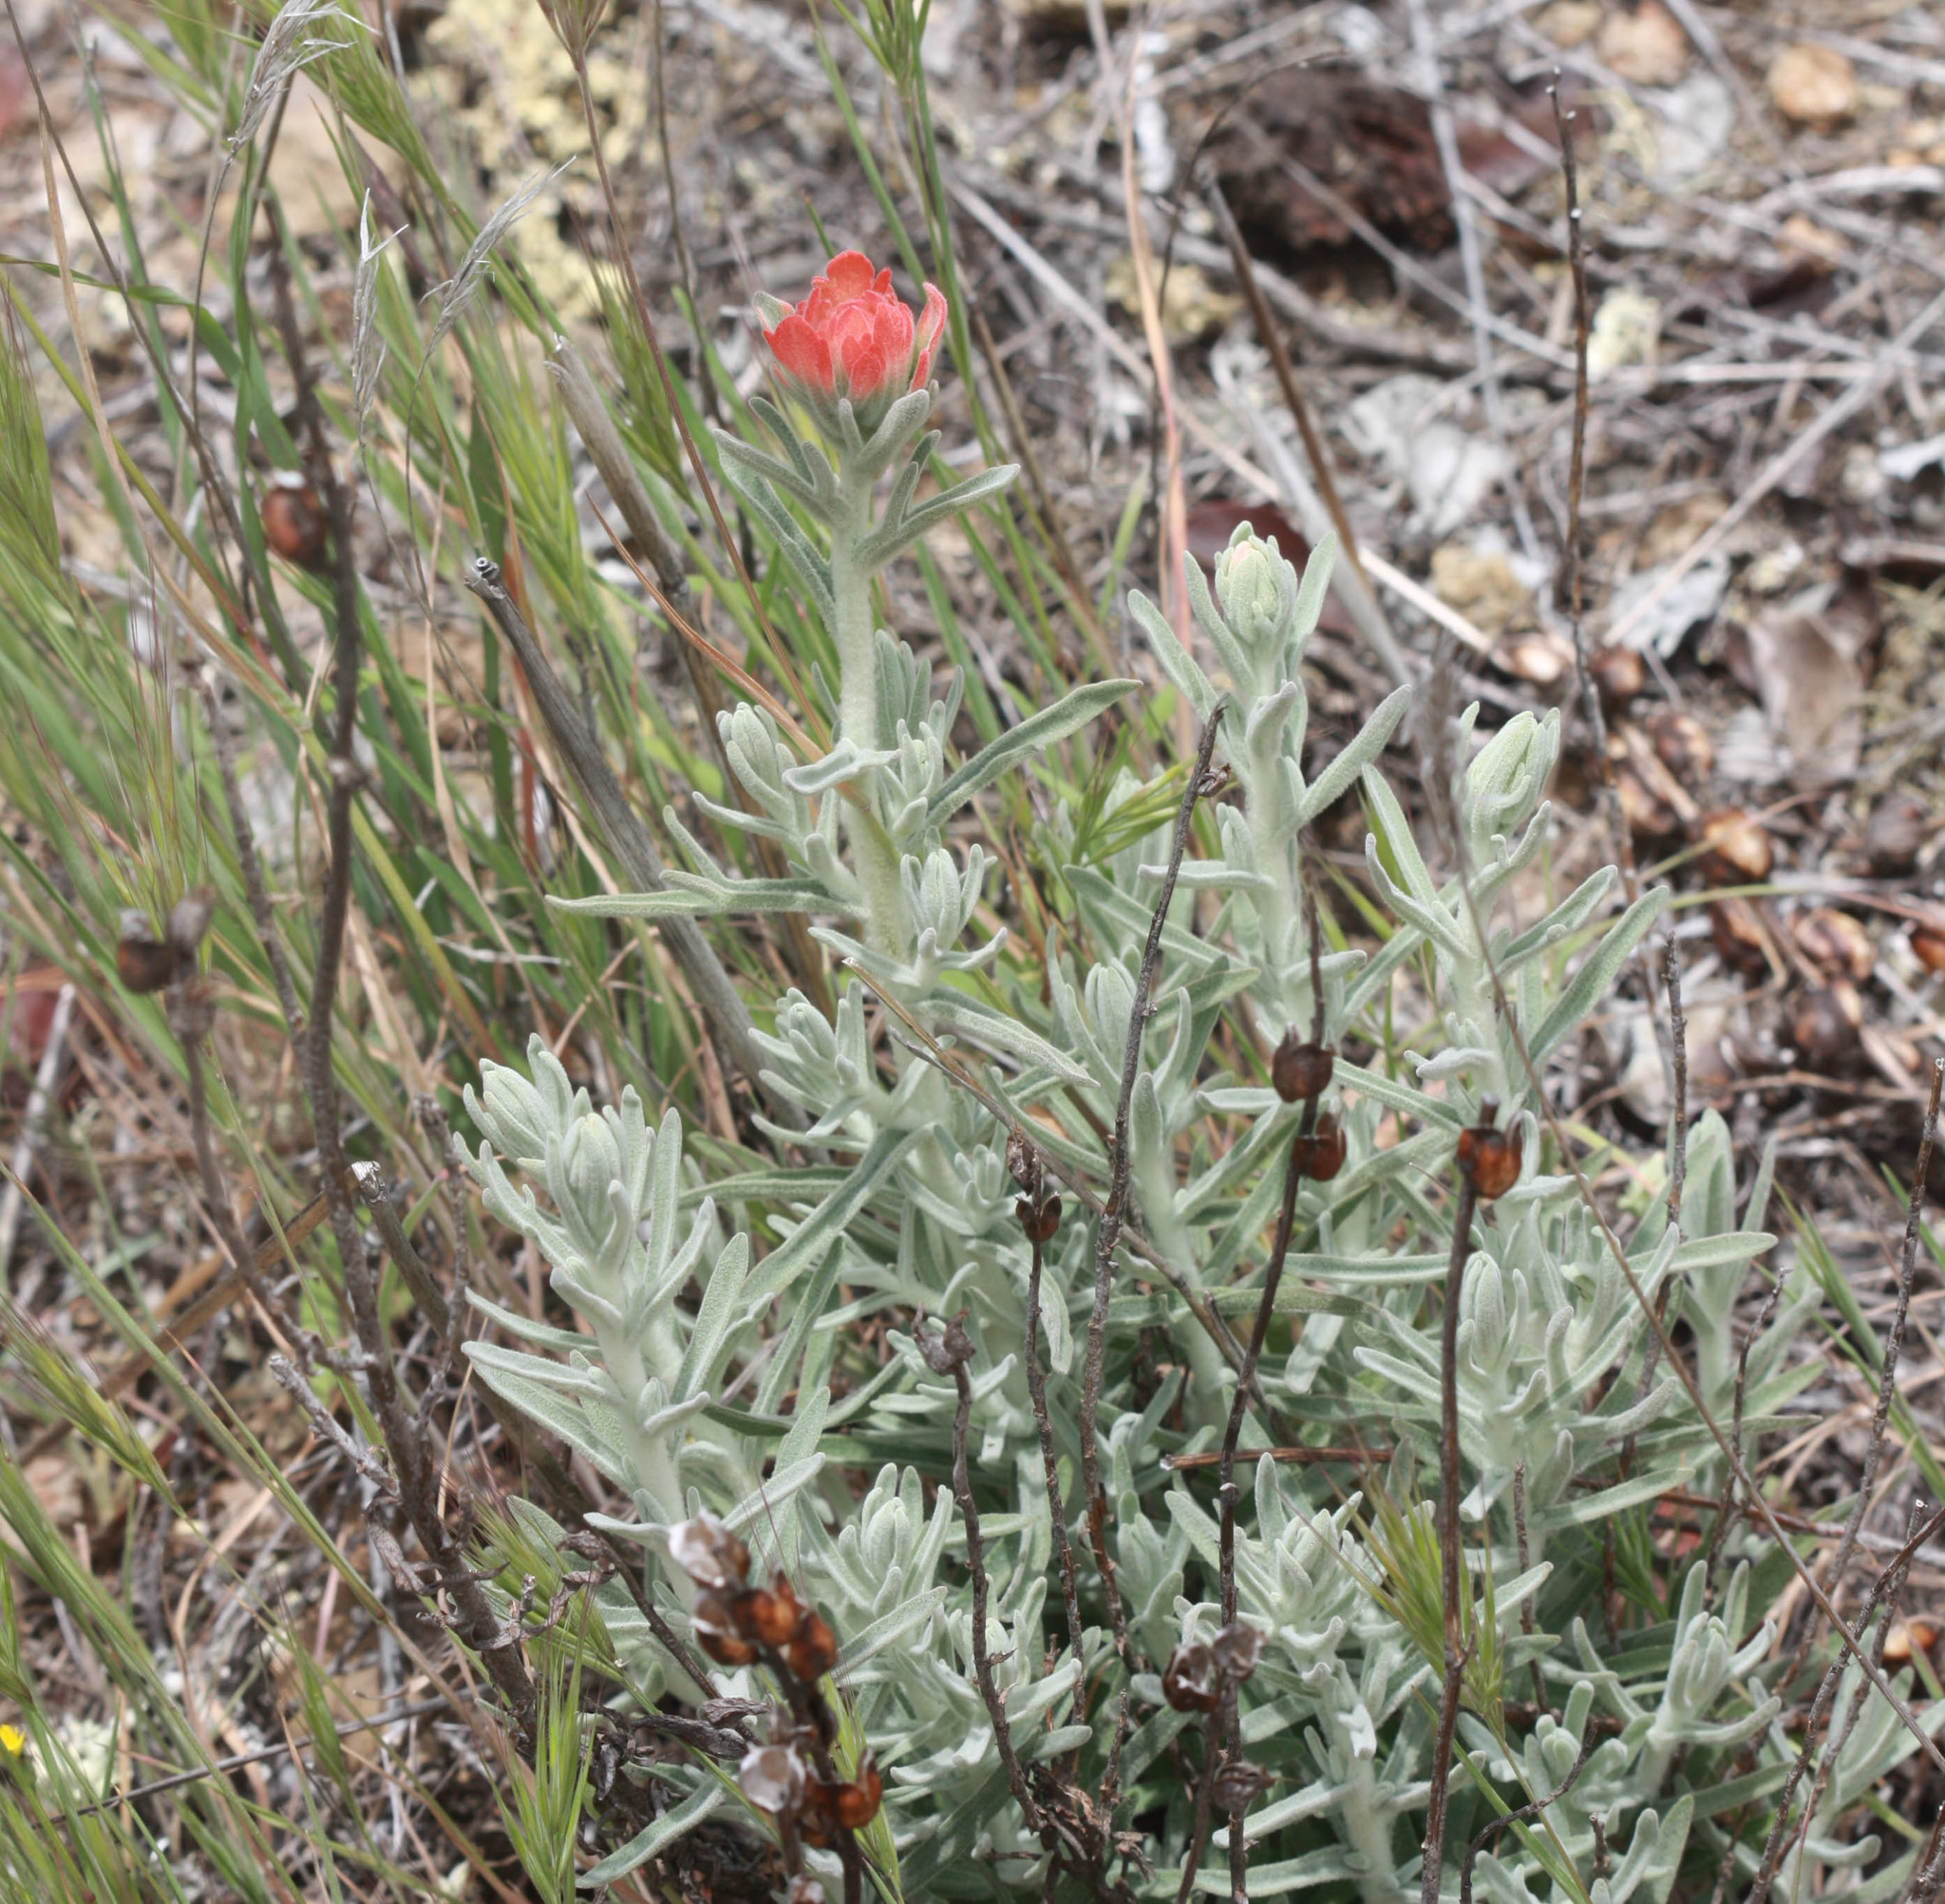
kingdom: Plantae
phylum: Tracheophyta
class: Magnoliopsida
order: Lamiales
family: Orobanchaceae
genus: Castilleja
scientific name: Castilleja foliolosa
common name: Woolly indian paintbrush
